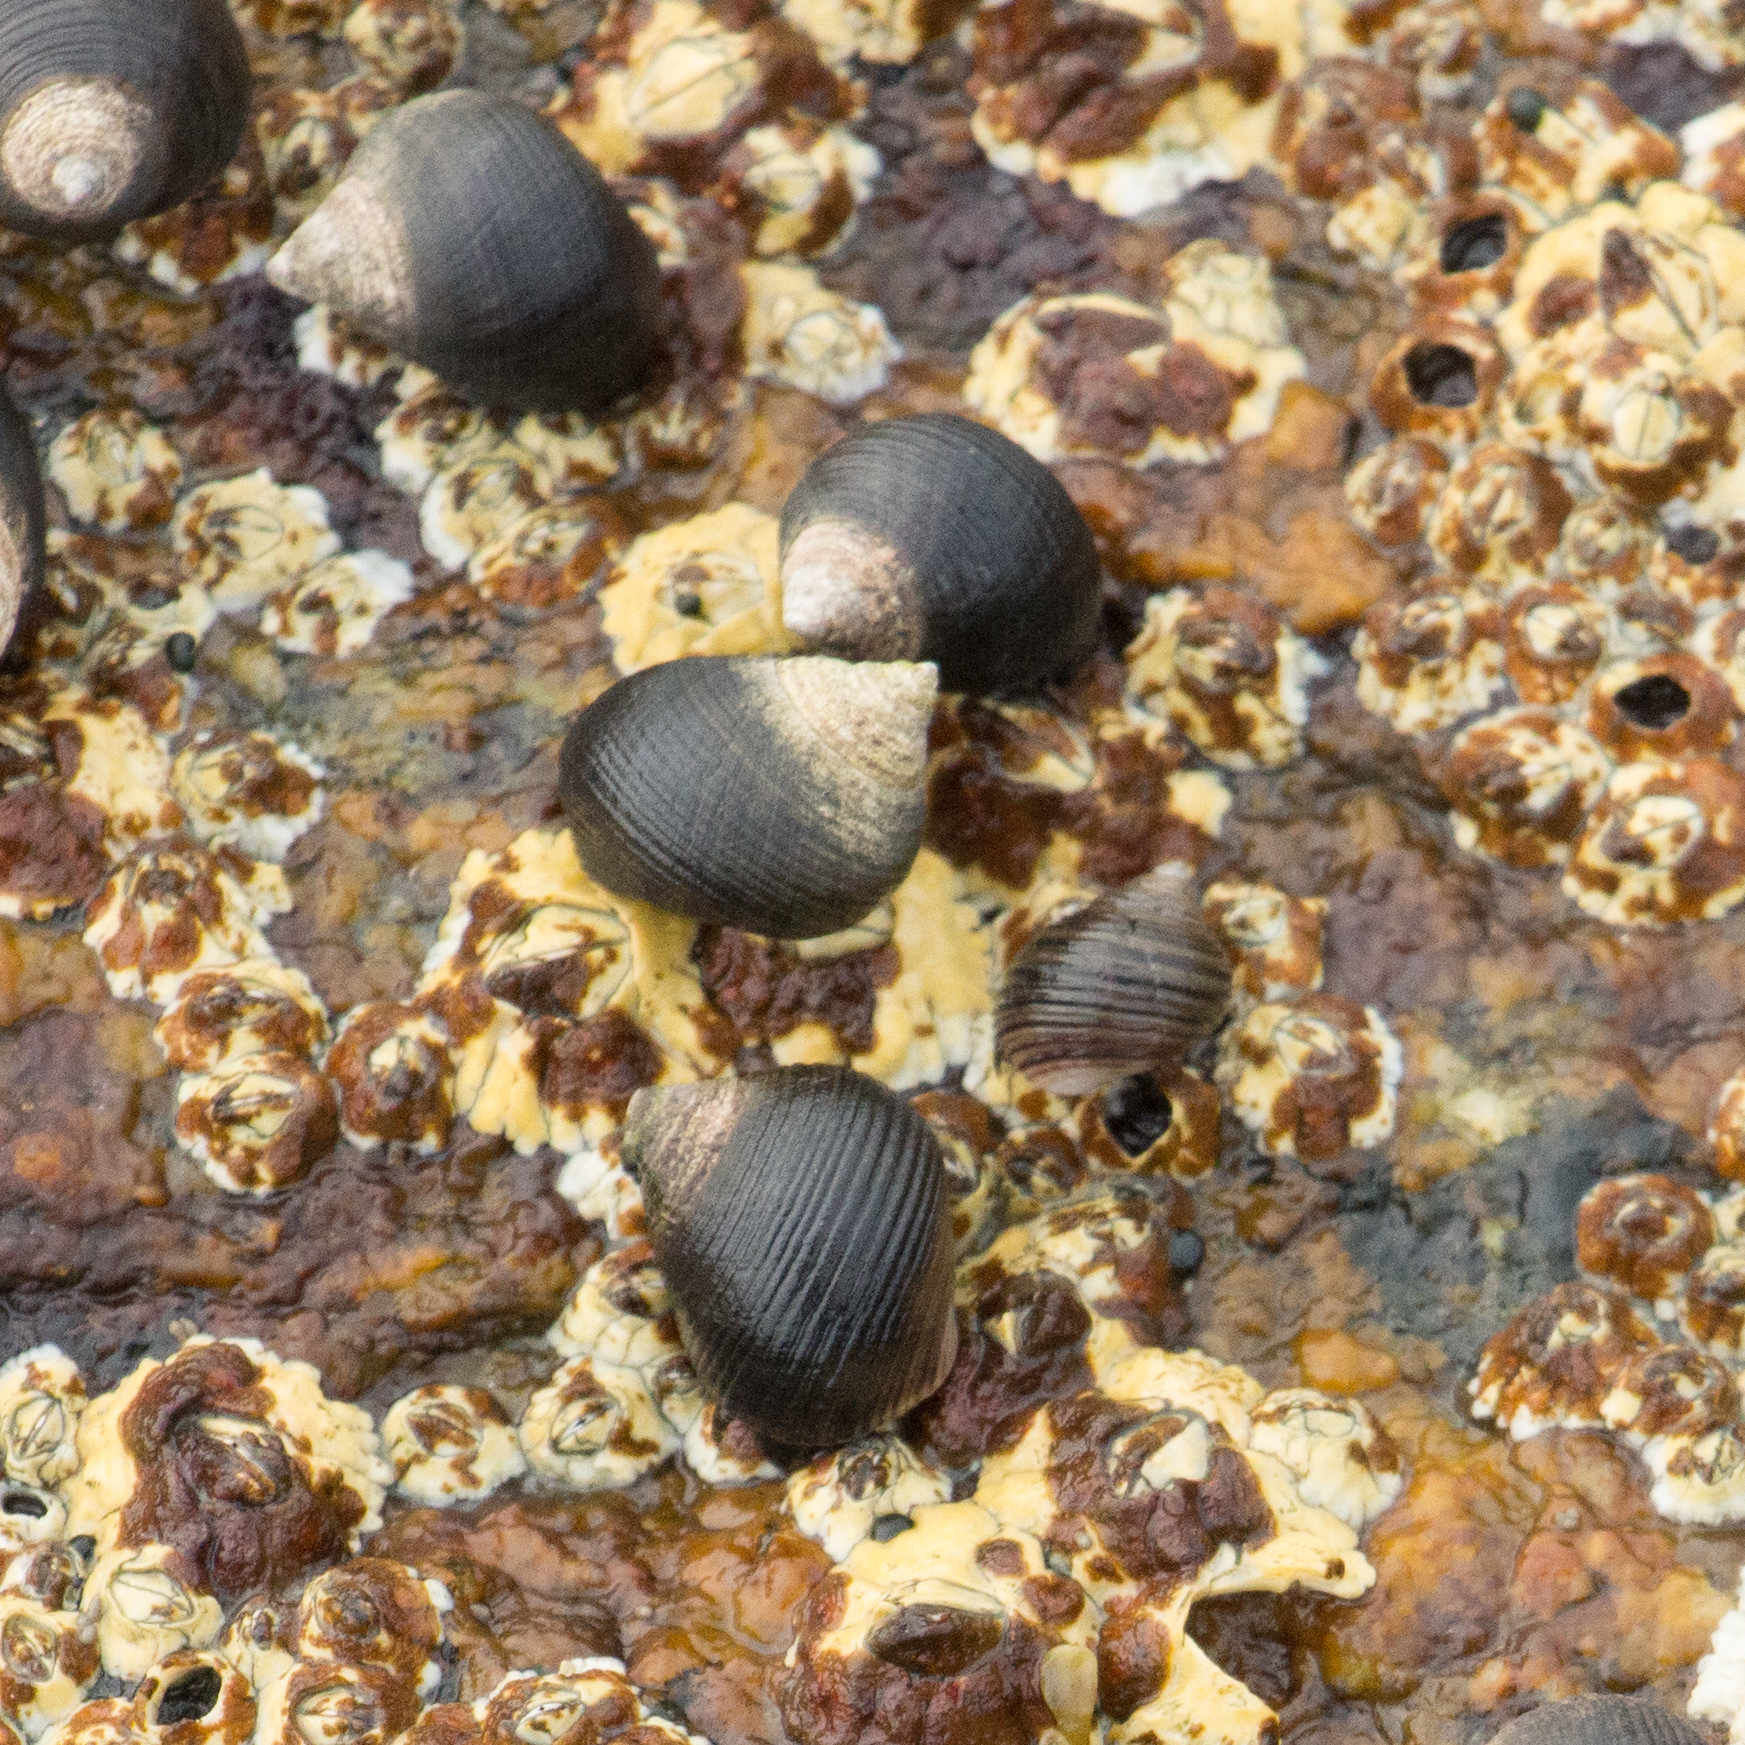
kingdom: Animalia
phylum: Mollusca
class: Gastropoda
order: Littorinimorpha
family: Littorinidae
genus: Littorina
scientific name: Littorina littorea
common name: Common periwinkle
